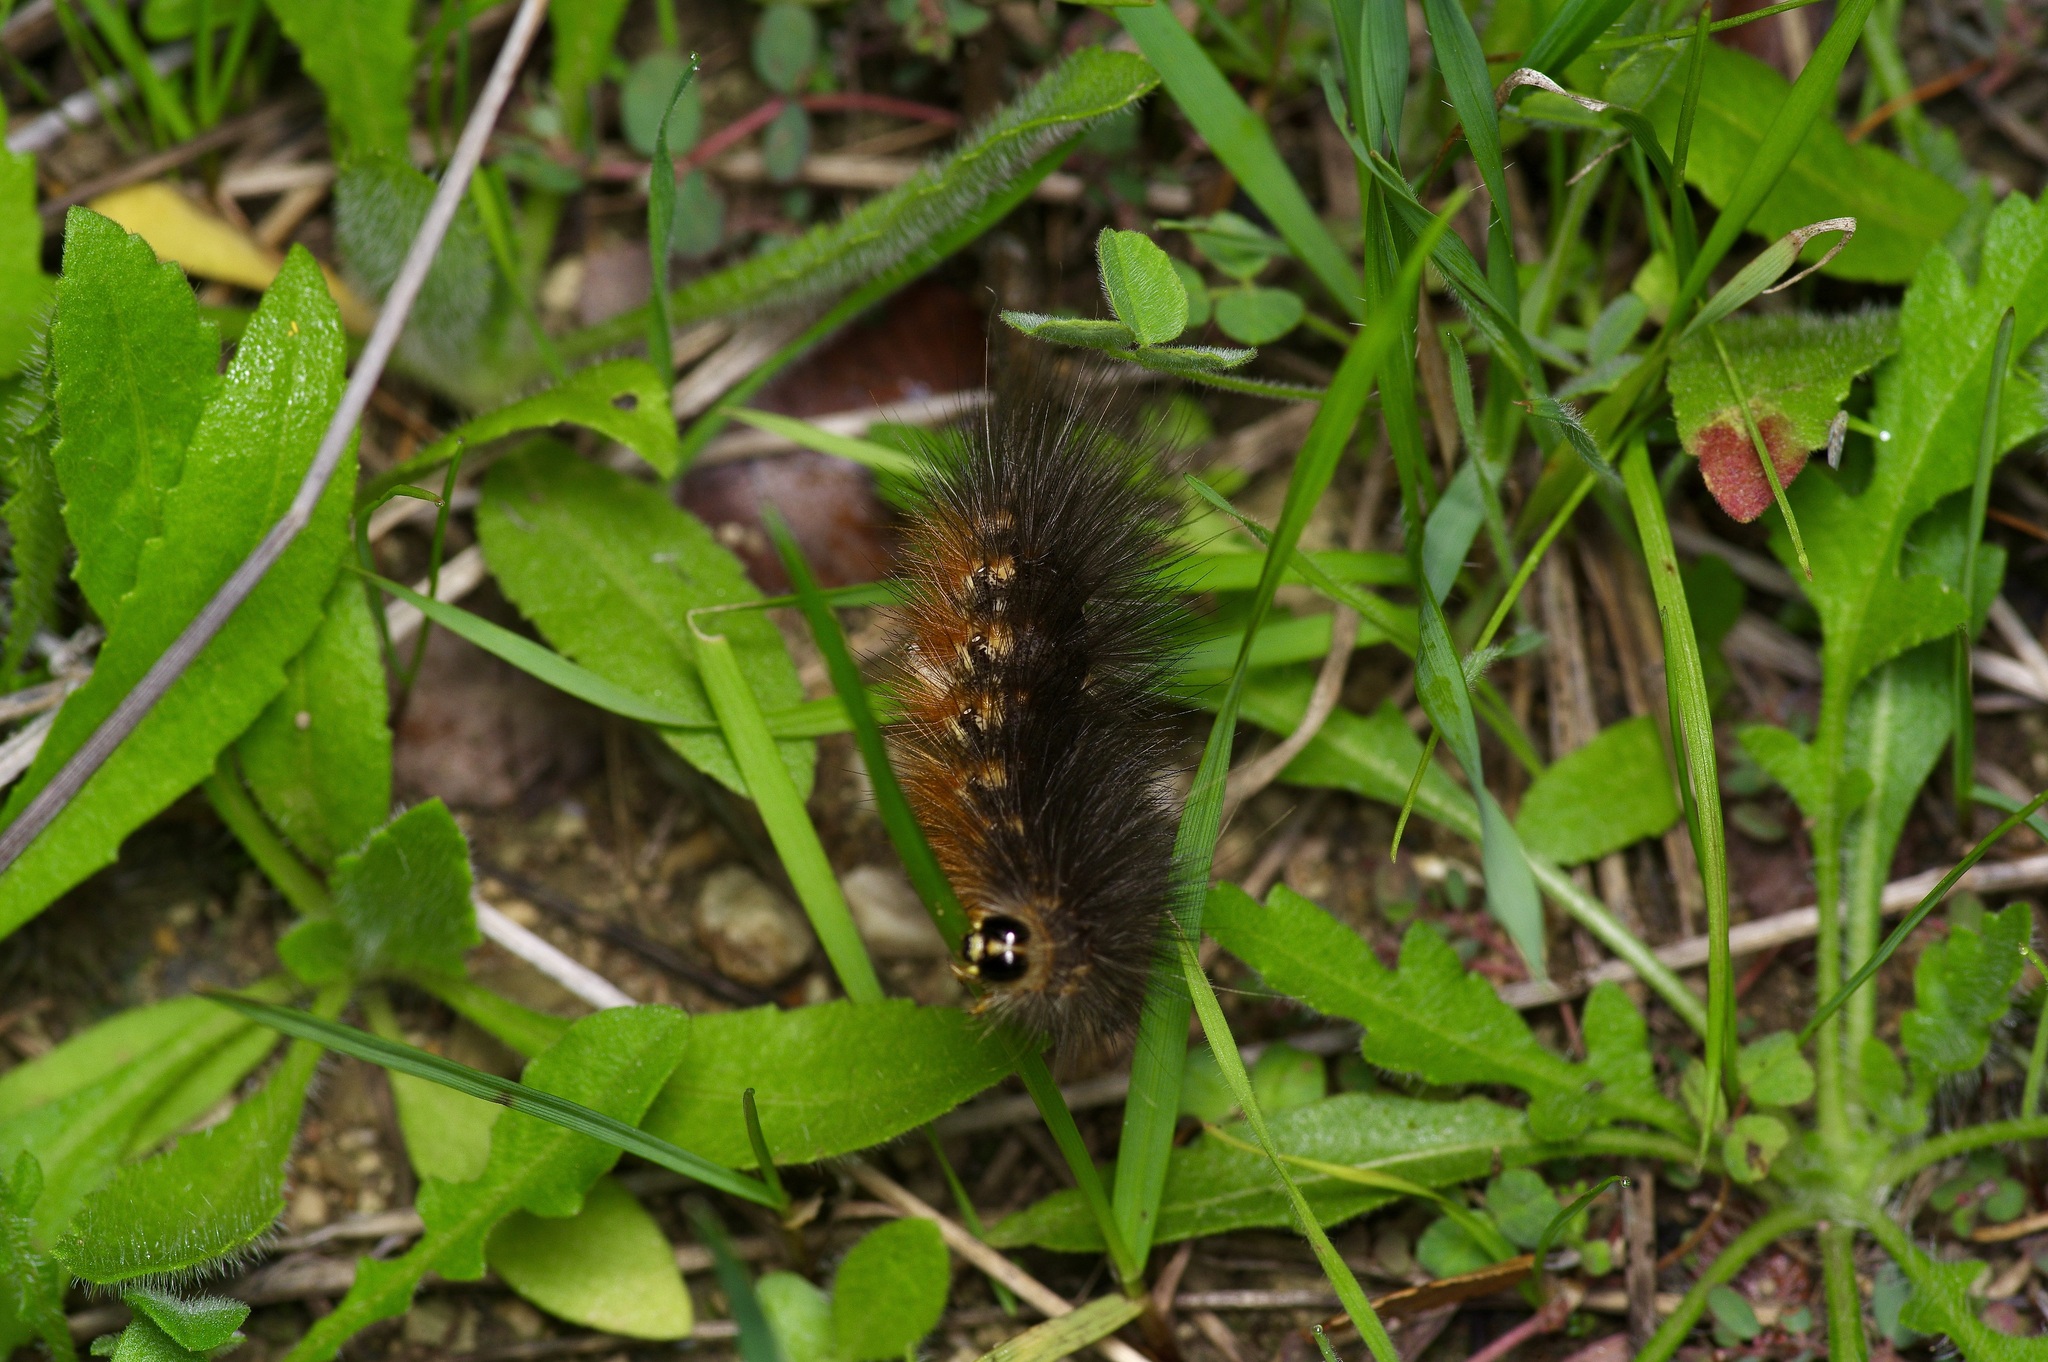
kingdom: Animalia
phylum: Arthropoda
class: Insecta
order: Lepidoptera
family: Erebidae
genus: Estigmene
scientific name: Estigmene acrea
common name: Salt marsh moth
